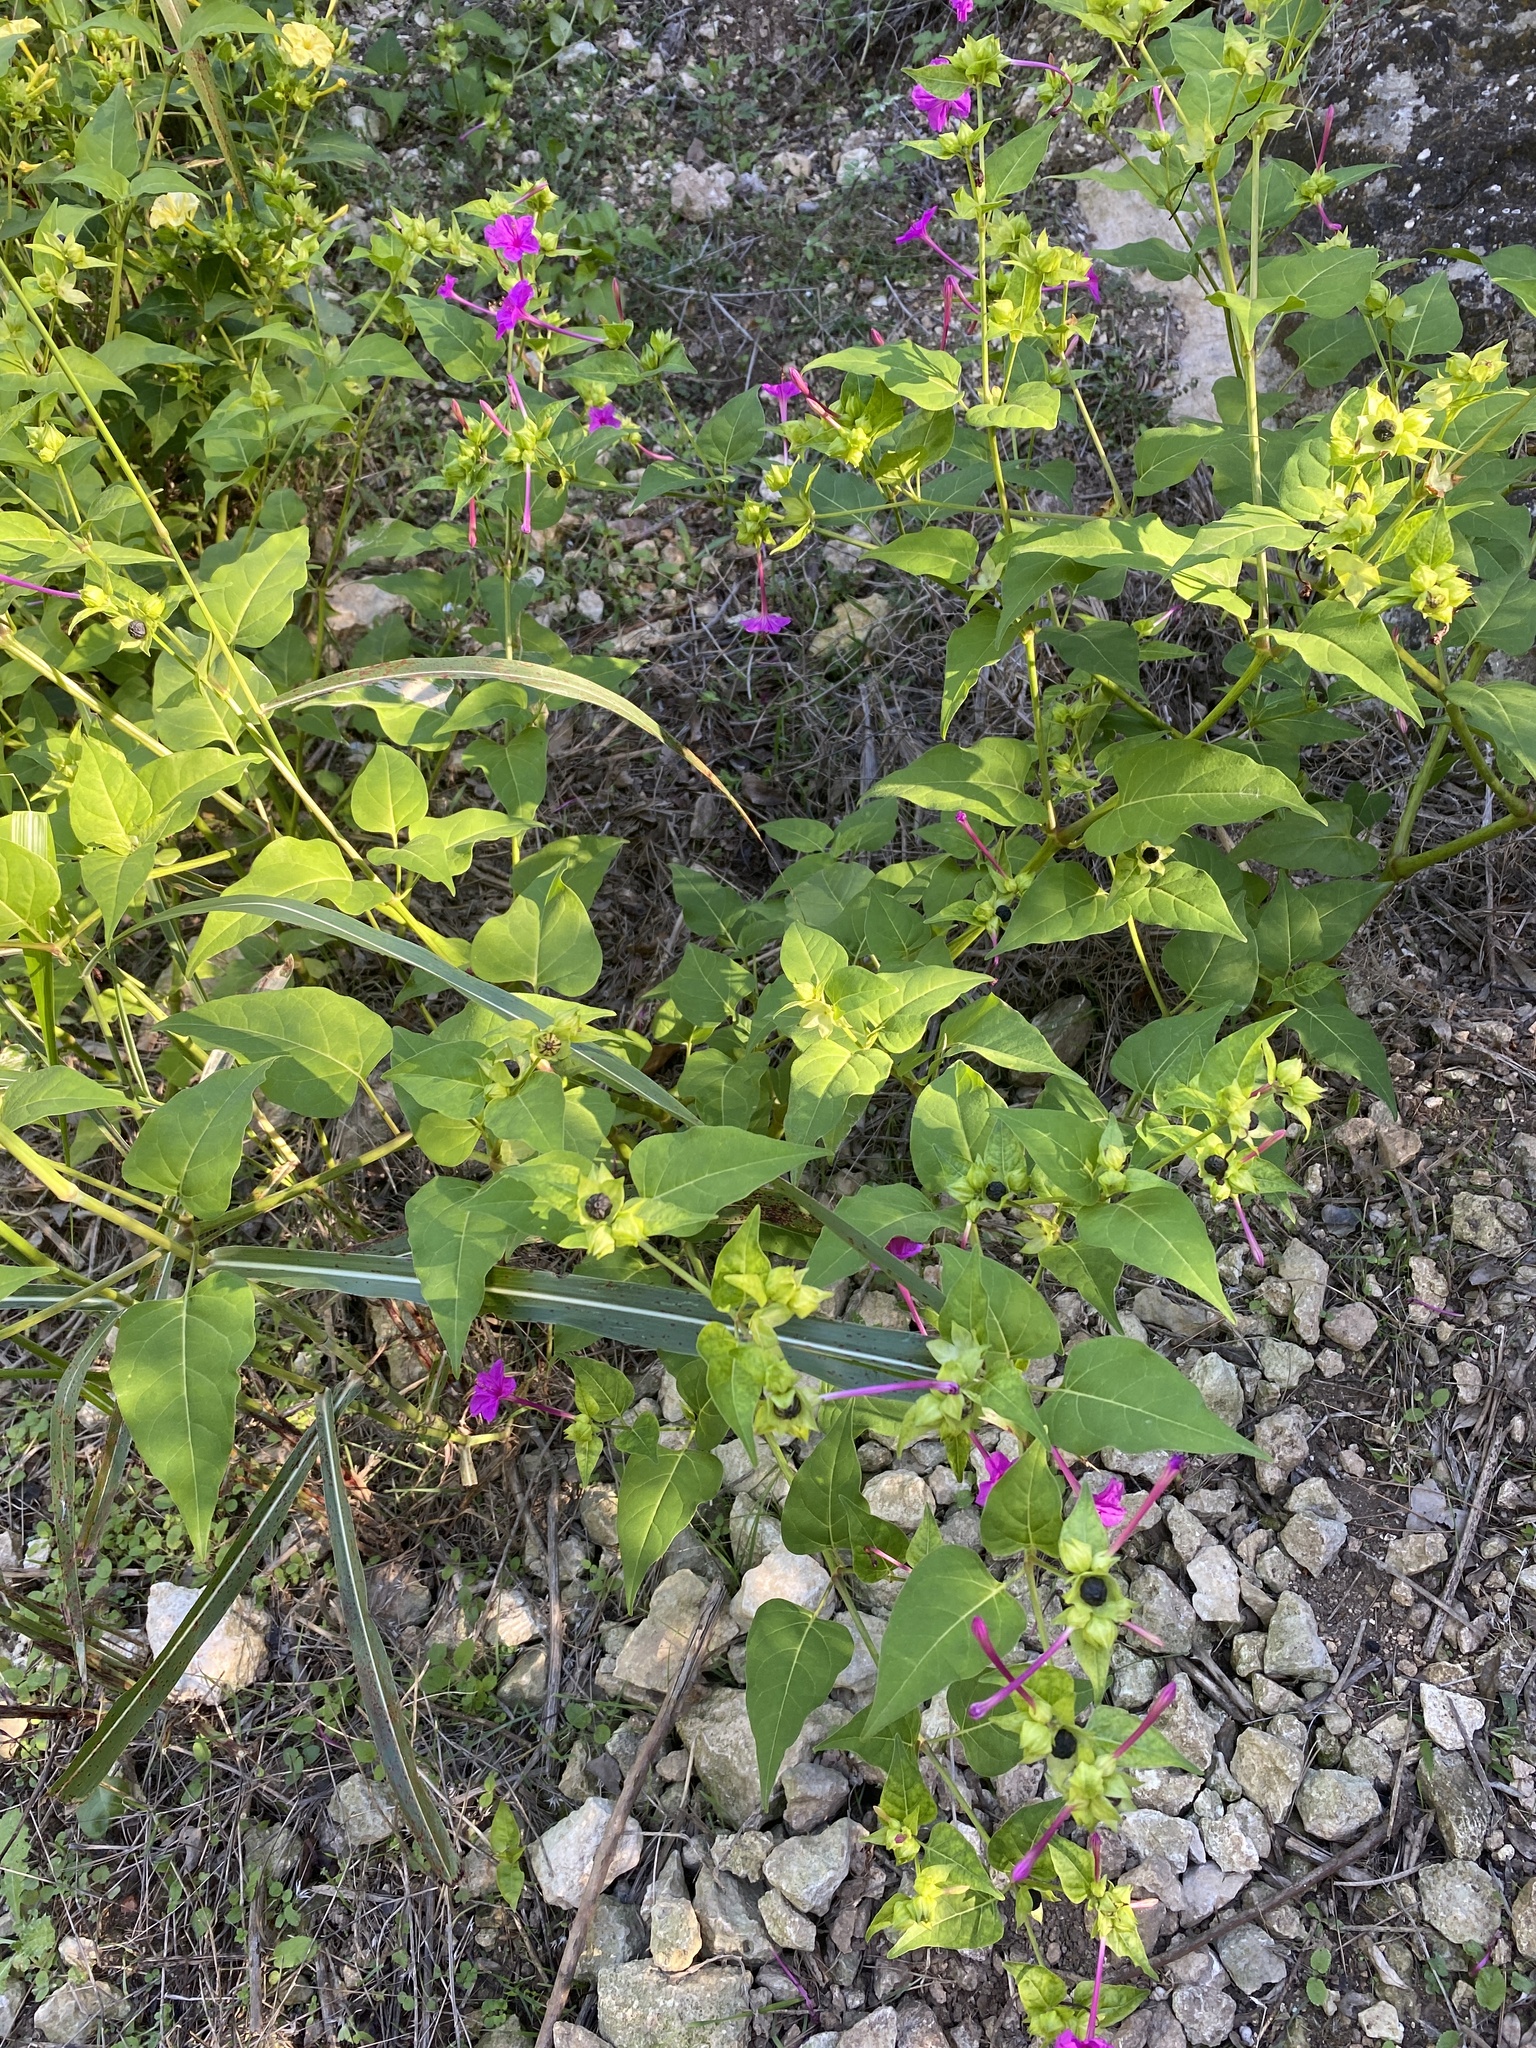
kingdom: Plantae
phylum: Tracheophyta
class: Magnoliopsida
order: Caryophyllales
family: Nyctaginaceae
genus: Mirabilis
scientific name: Mirabilis jalapa
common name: Marvel-of-peru
